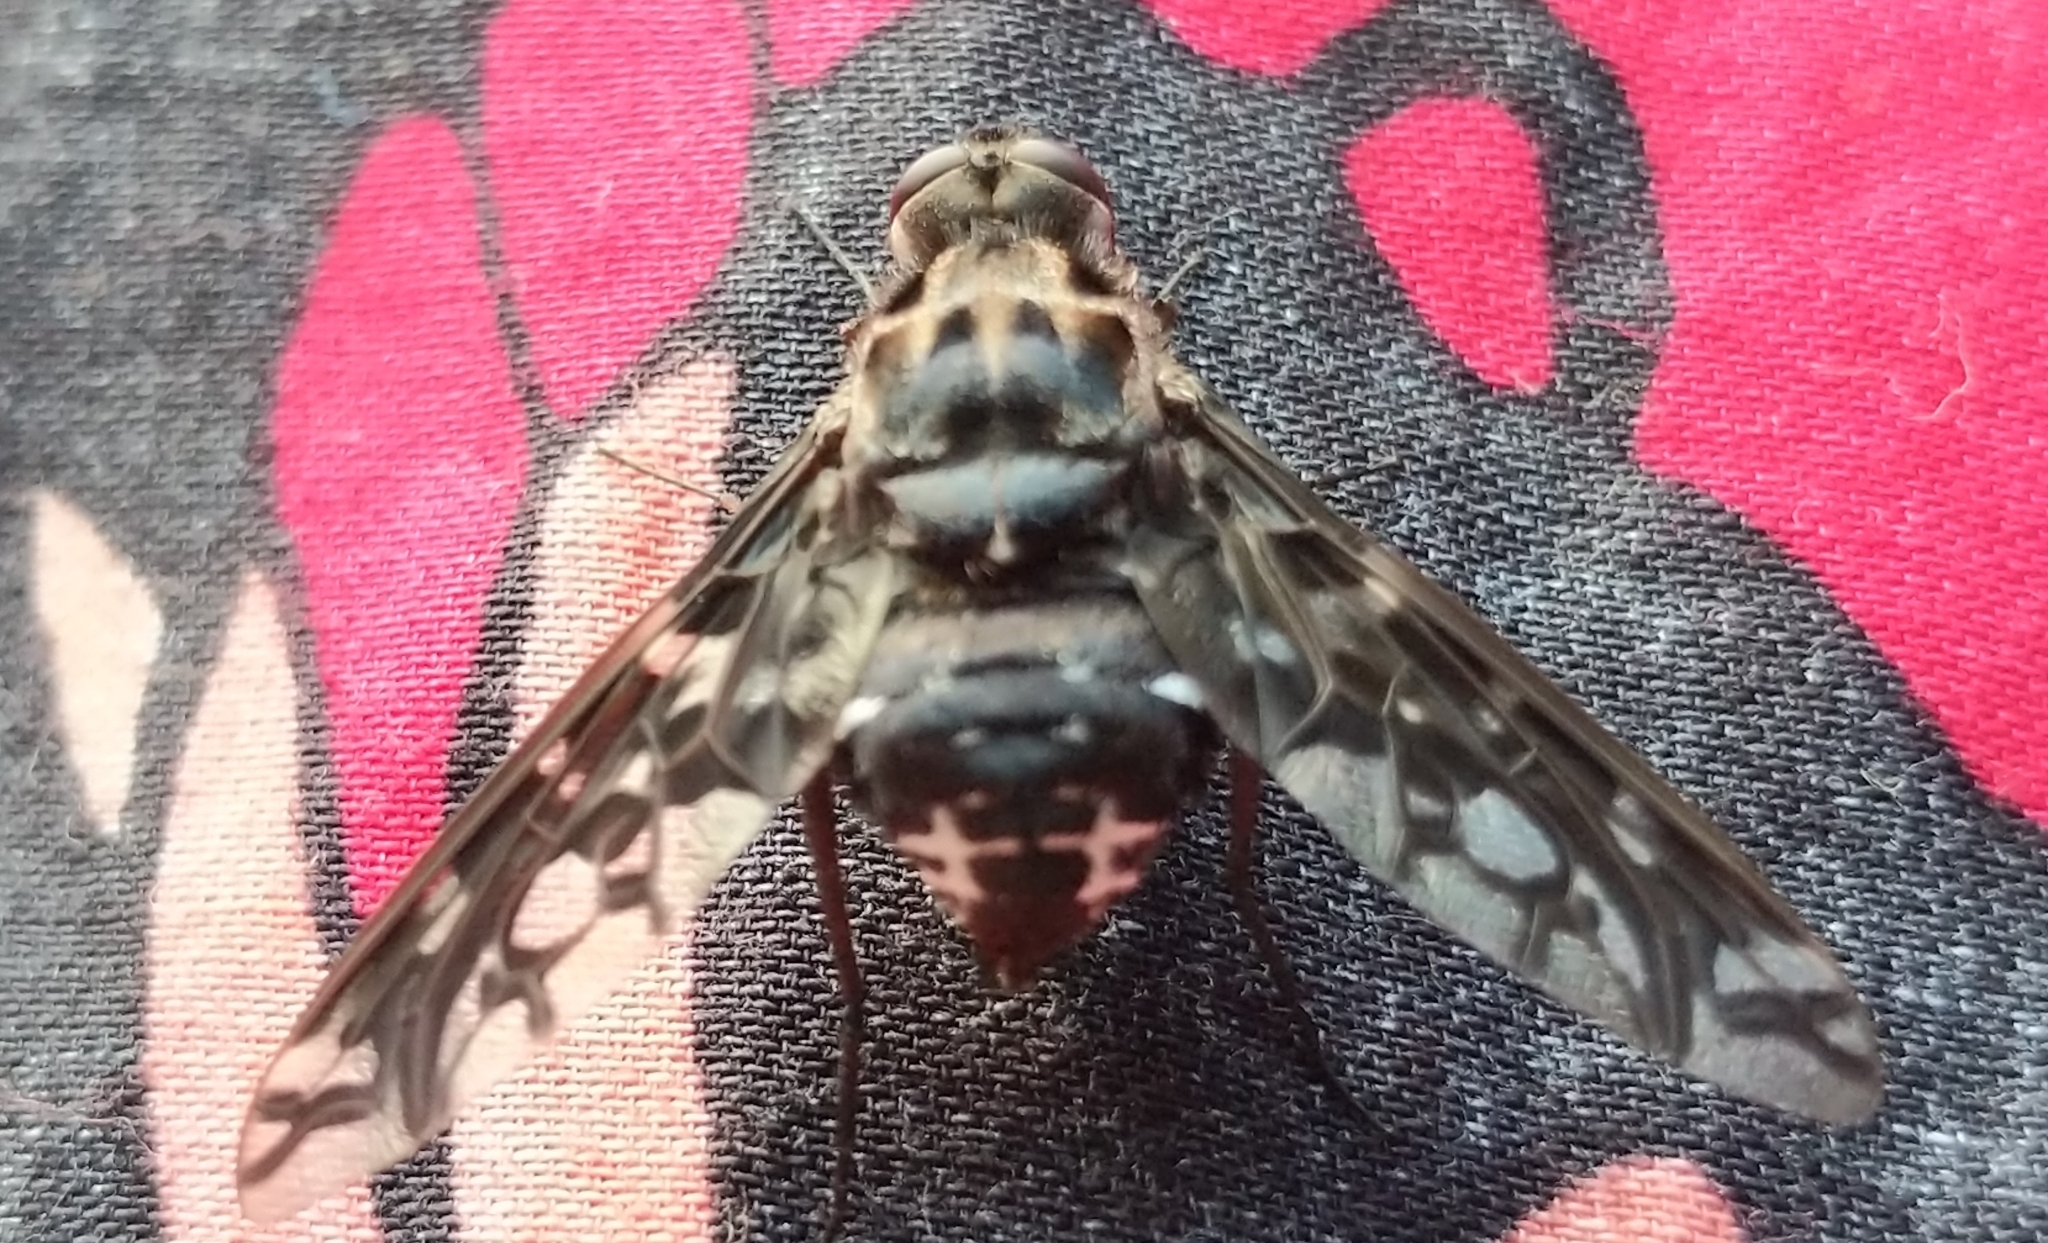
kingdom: Animalia
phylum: Arthropoda
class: Insecta
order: Diptera
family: Bombyliidae
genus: Xenox
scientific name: Xenox tigrinus
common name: Tiger bee fly
